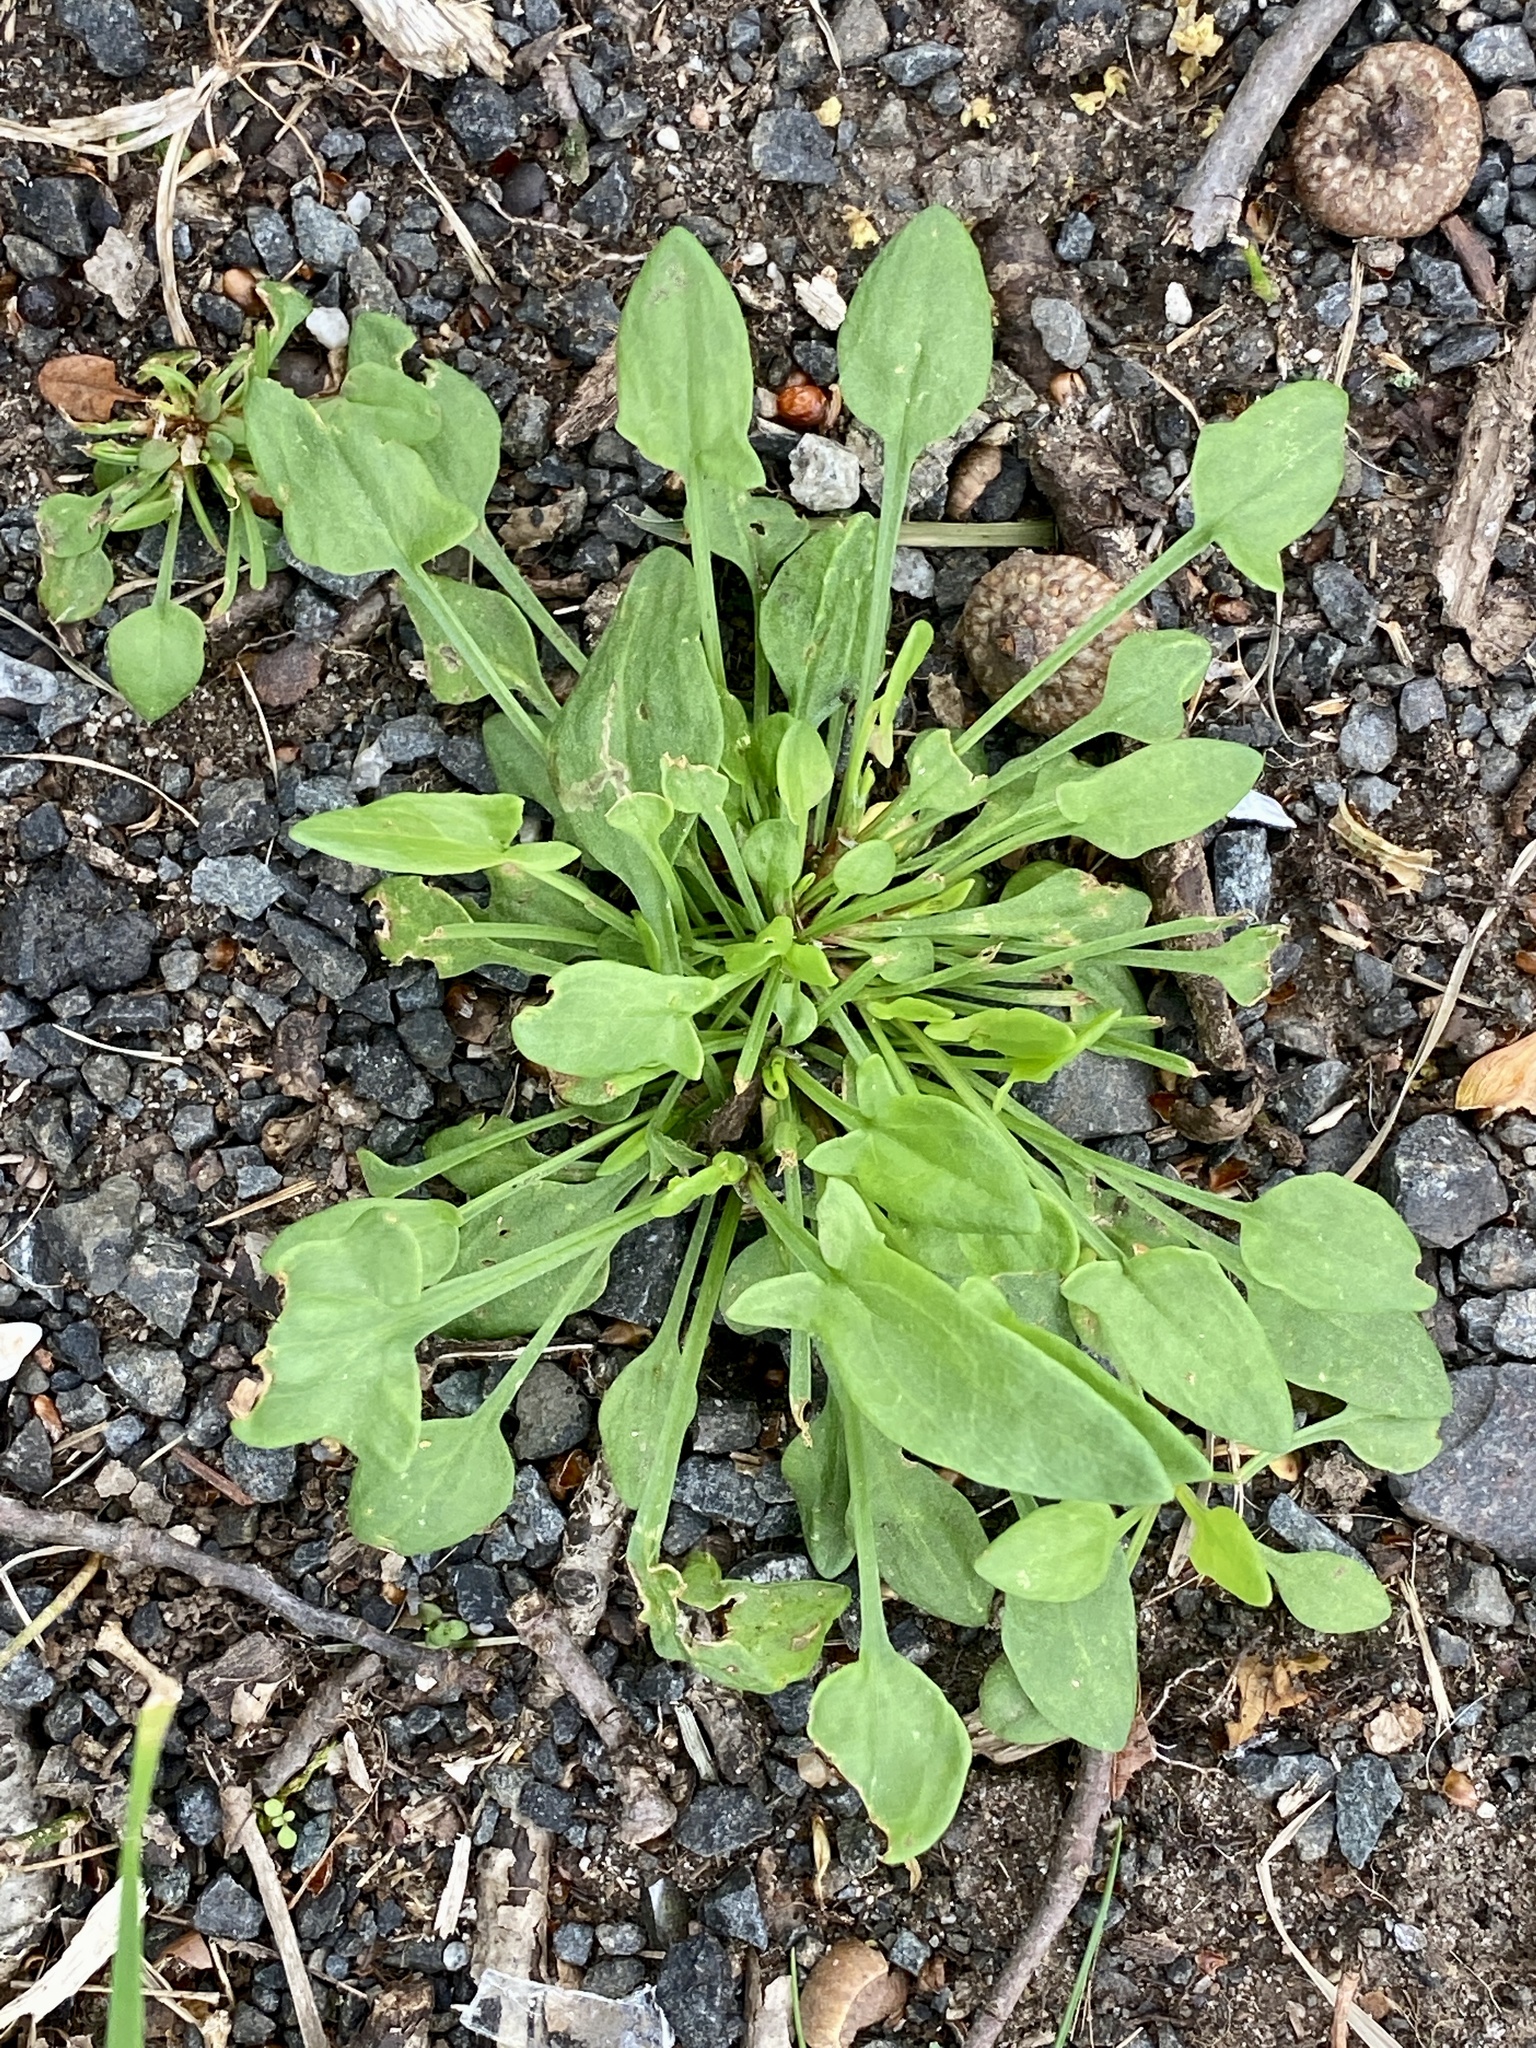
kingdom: Plantae
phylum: Tracheophyta
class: Magnoliopsida
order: Caryophyllales
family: Polygonaceae
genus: Rumex
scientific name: Rumex acetosella
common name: Common sheep sorrel
